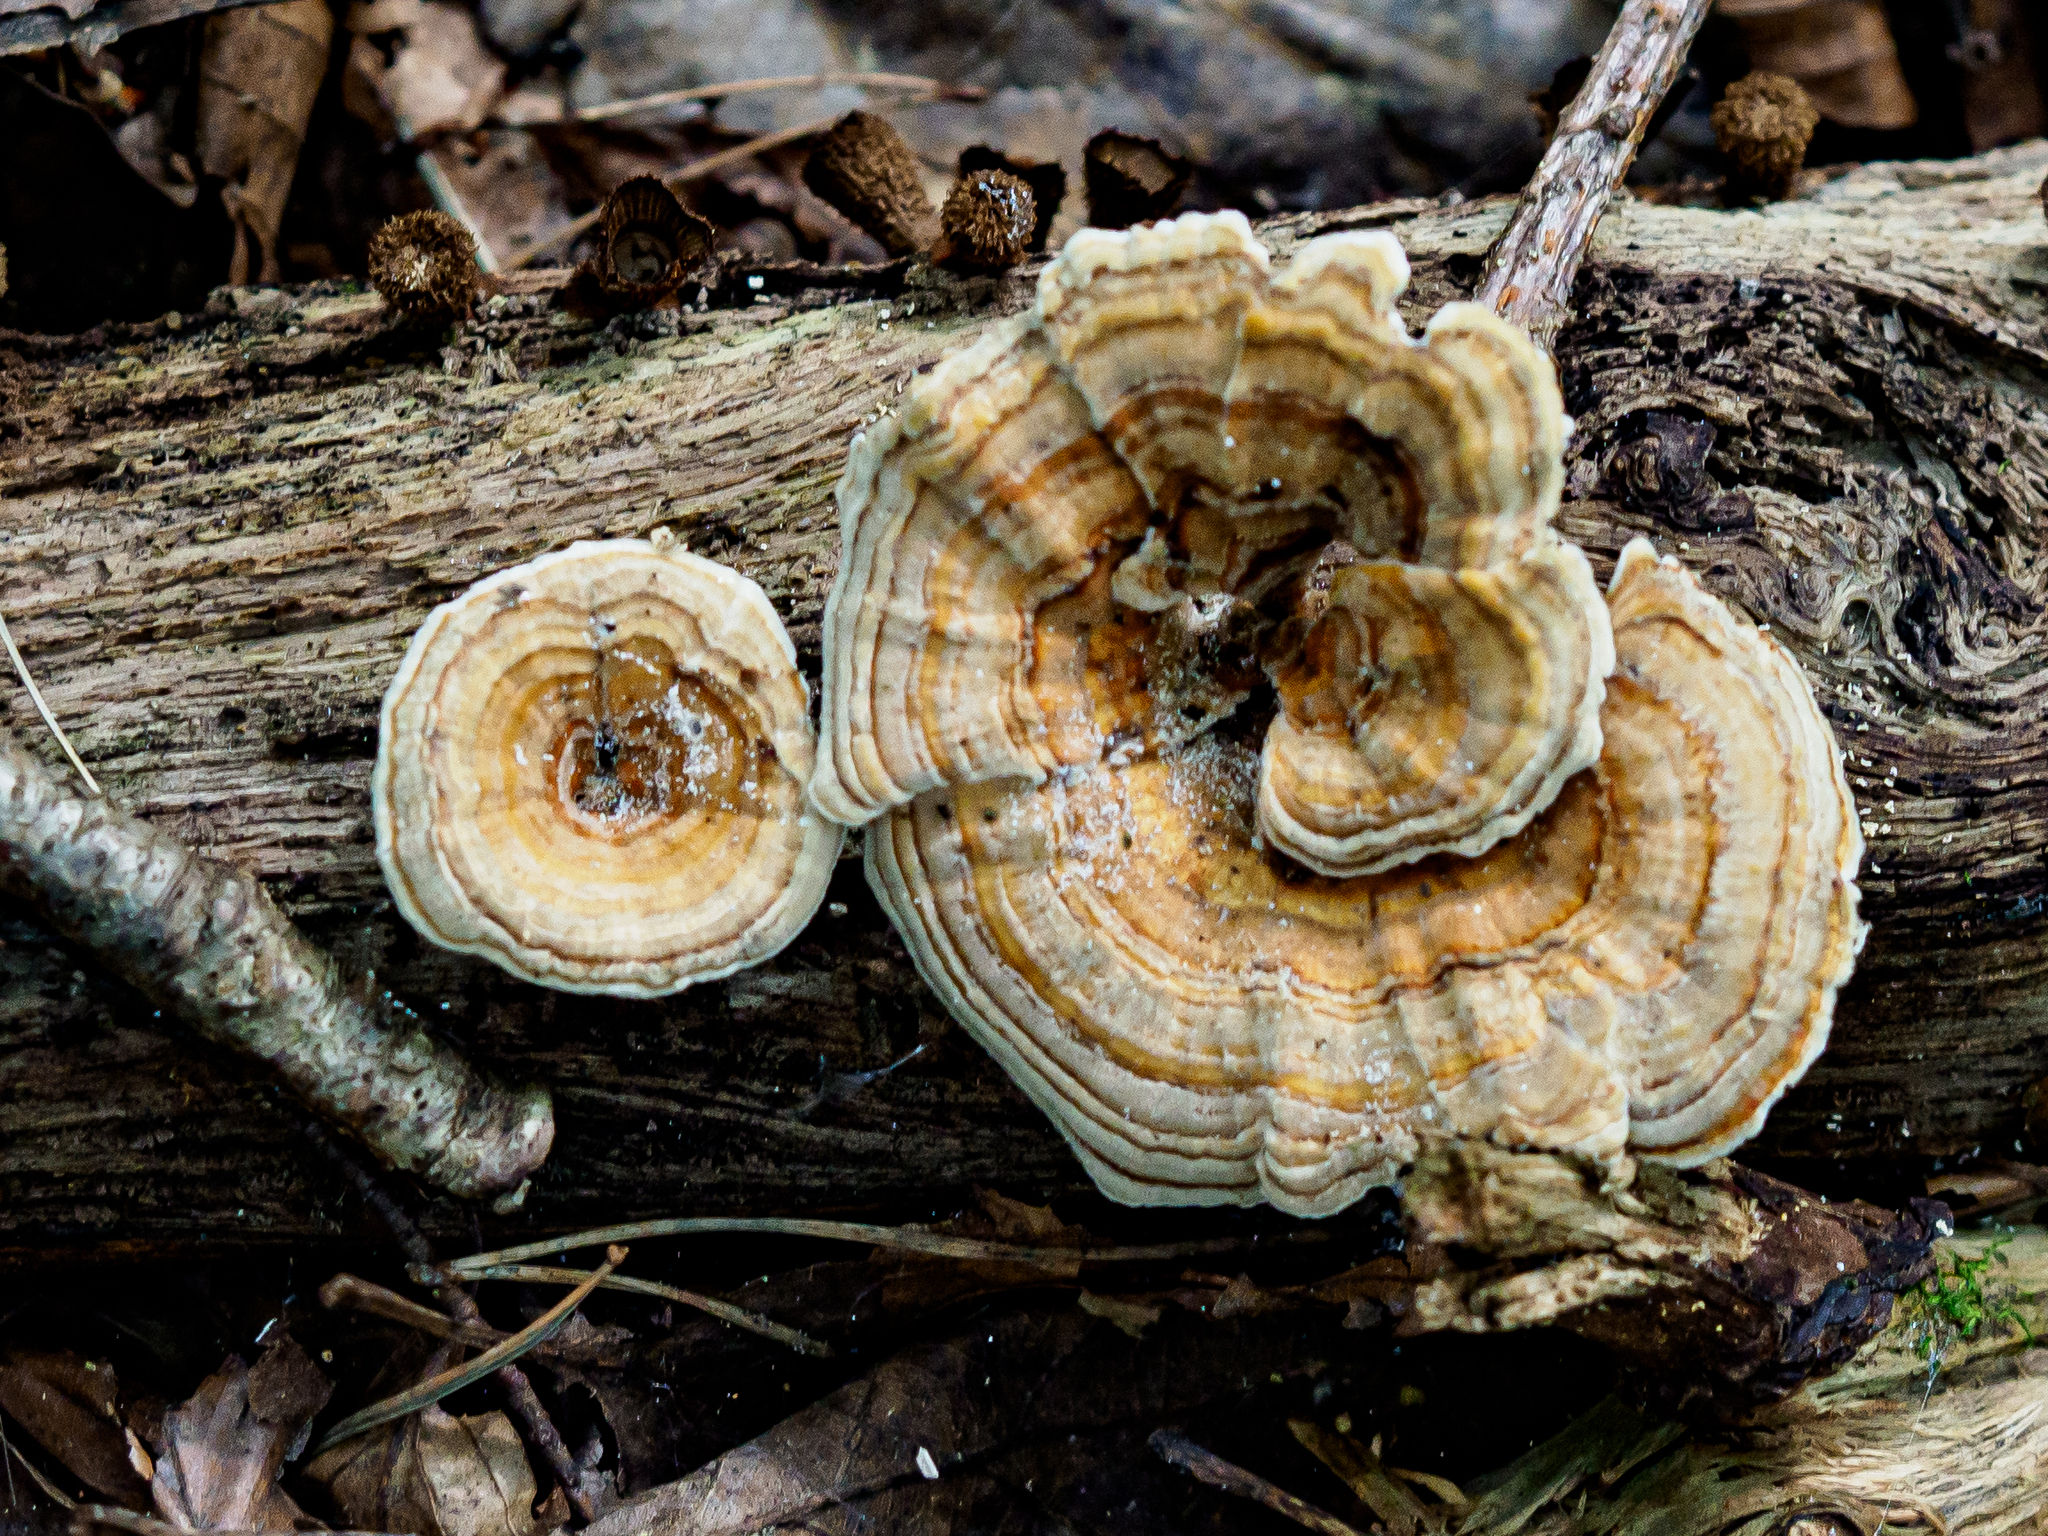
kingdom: Fungi
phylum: Basidiomycota
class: Agaricomycetes
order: Polyporales
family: Polyporaceae
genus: Trametes
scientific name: Trametes versicolor
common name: Turkeytail
